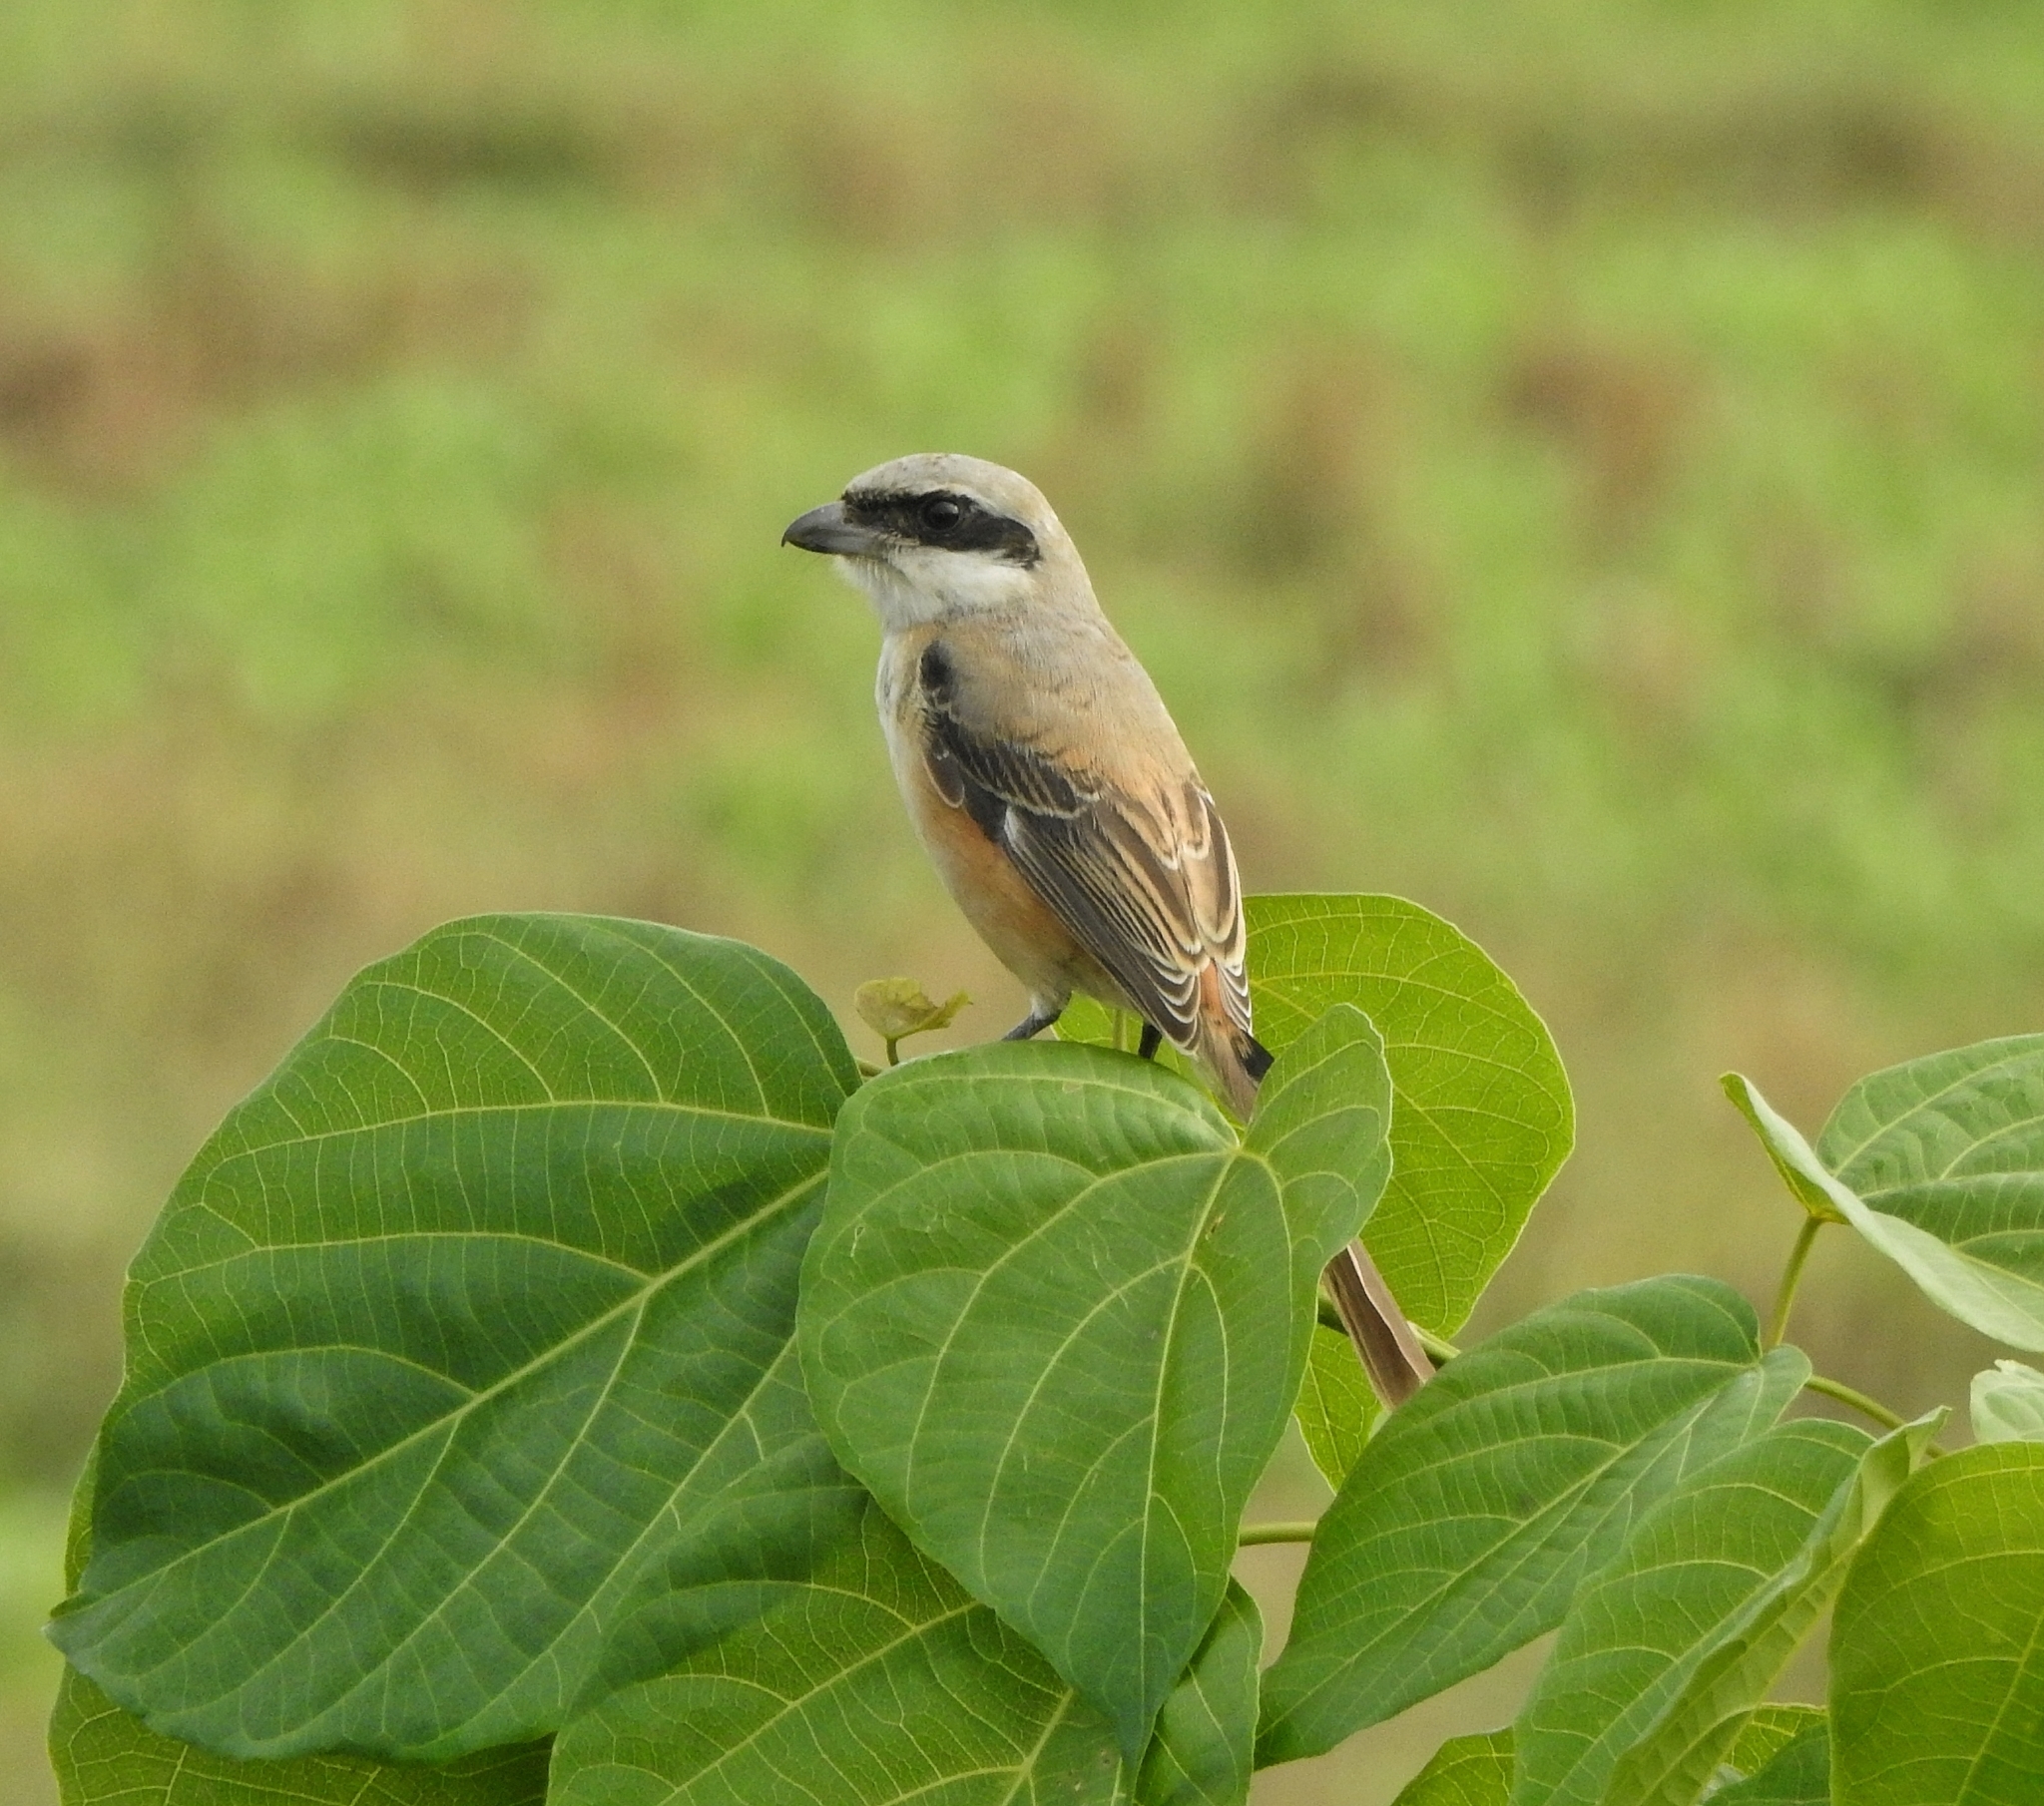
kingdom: Animalia
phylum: Chordata
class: Aves
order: Passeriformes
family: Laniidae
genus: Lanius
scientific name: Lanius schach
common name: Long-tailed shrike
